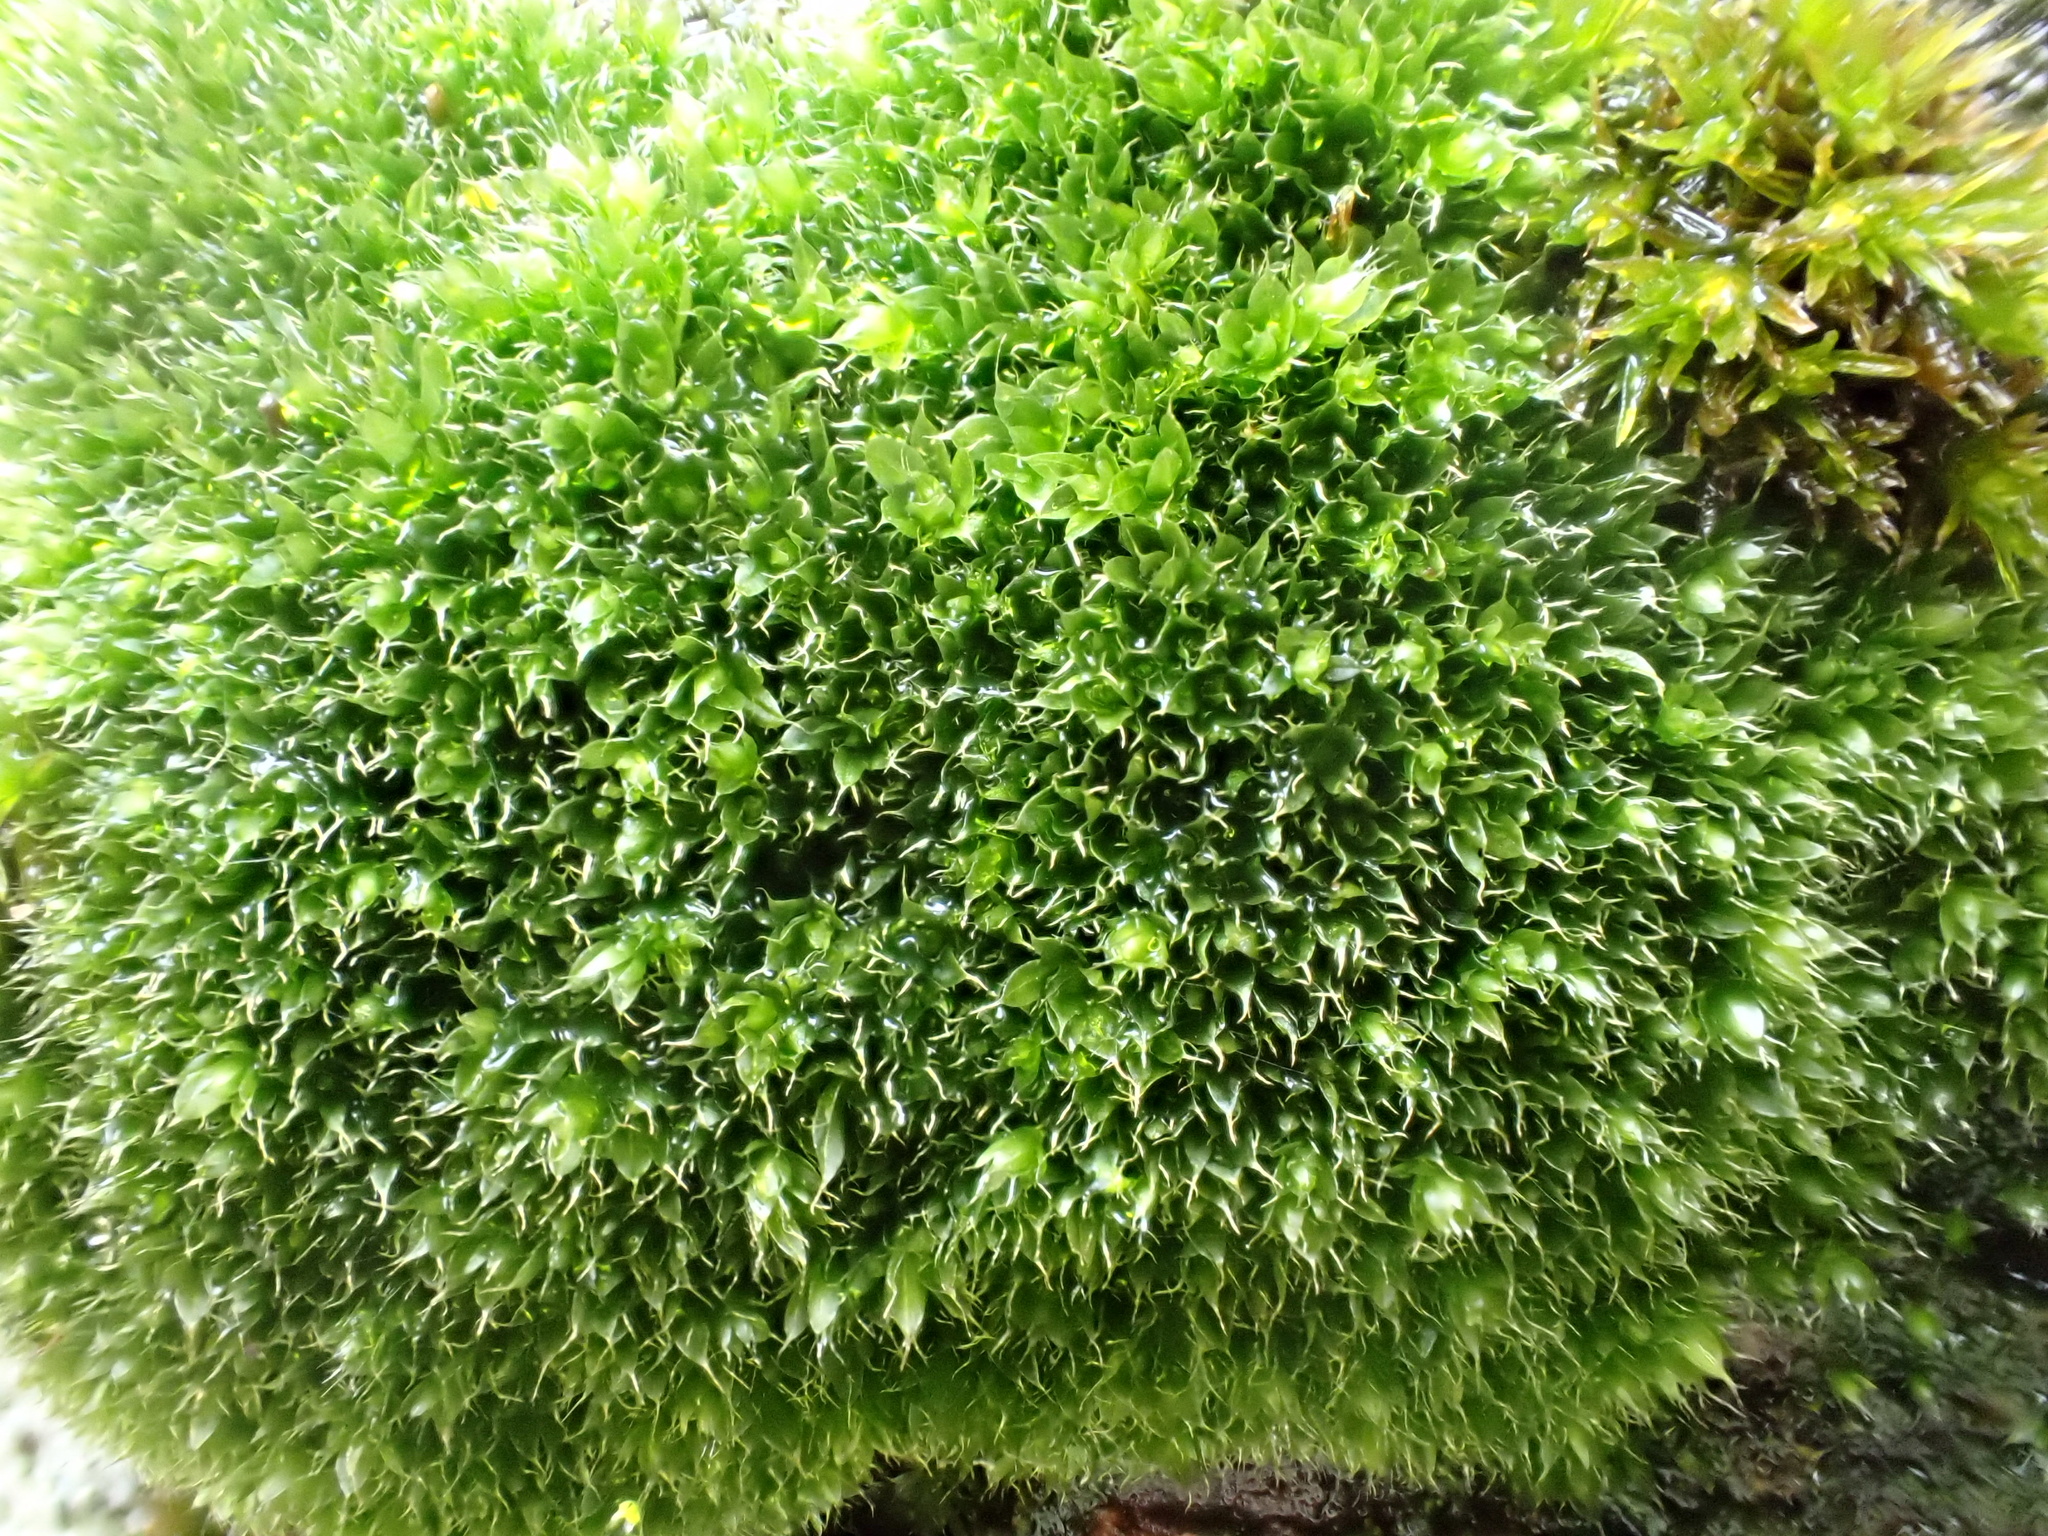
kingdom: Plantae
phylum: Bryophyta
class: Bryopsida
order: Bryales
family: Bryaceae
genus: Rosulabryum
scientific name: Rosulabryum capillare
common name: Capillary thread-moss
